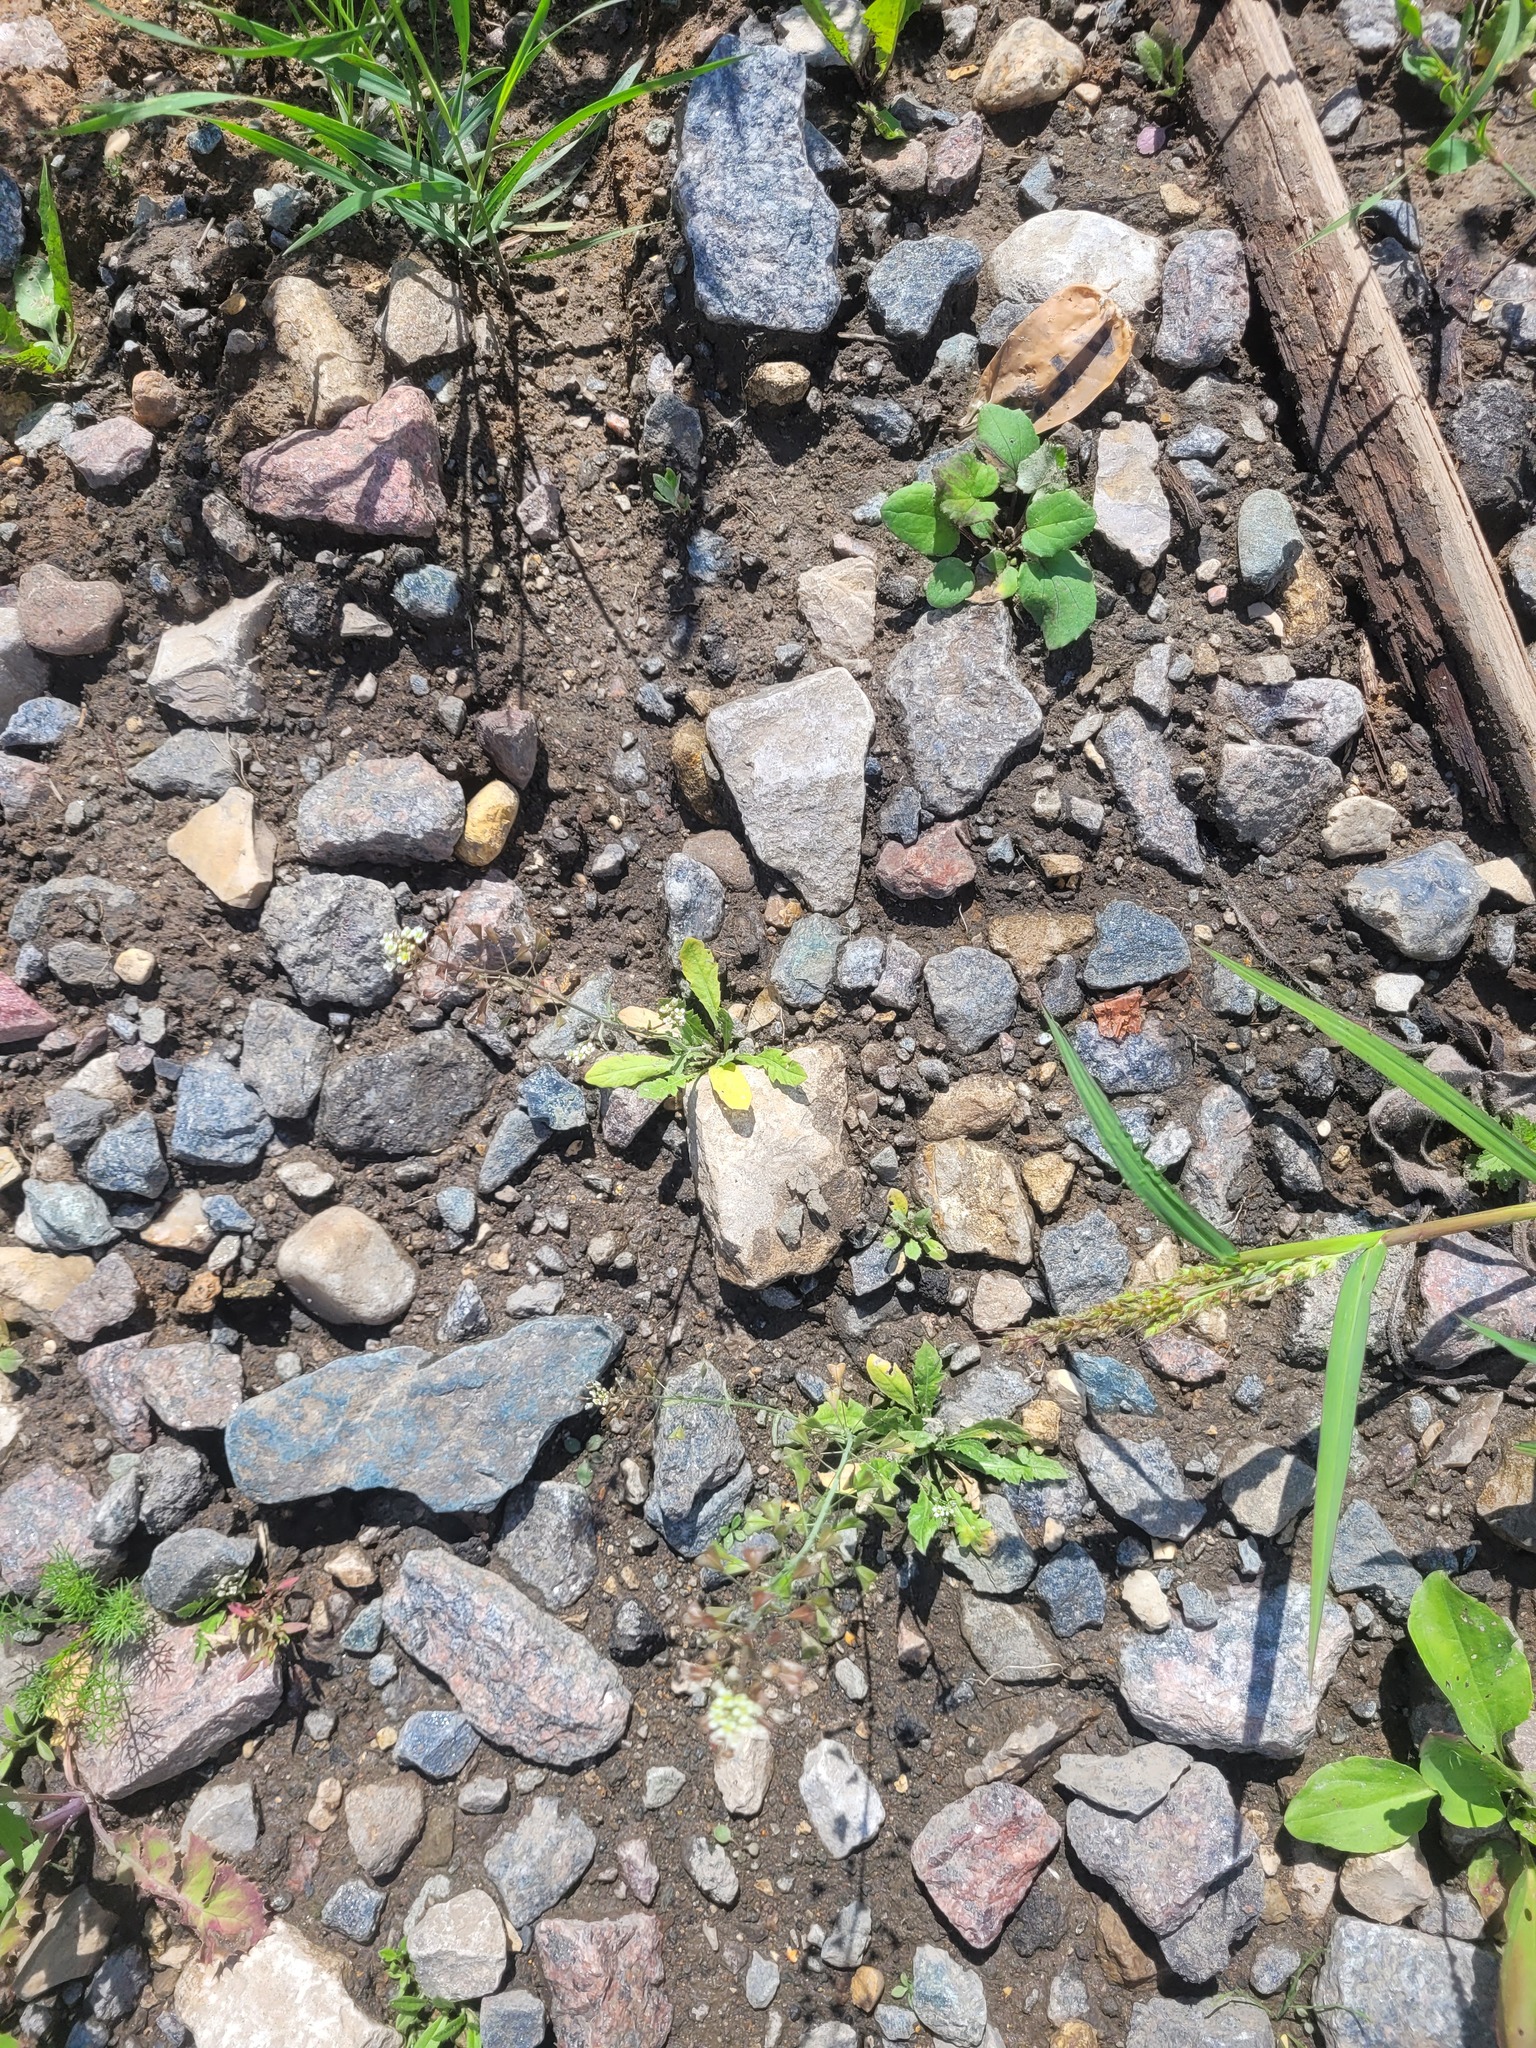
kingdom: Plantae
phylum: Tracheophyta
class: Magnoliopsida
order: Brassicales
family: Brassicaceae
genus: Capsella
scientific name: Capsella bursa-pastoris
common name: Shepherd's purse
